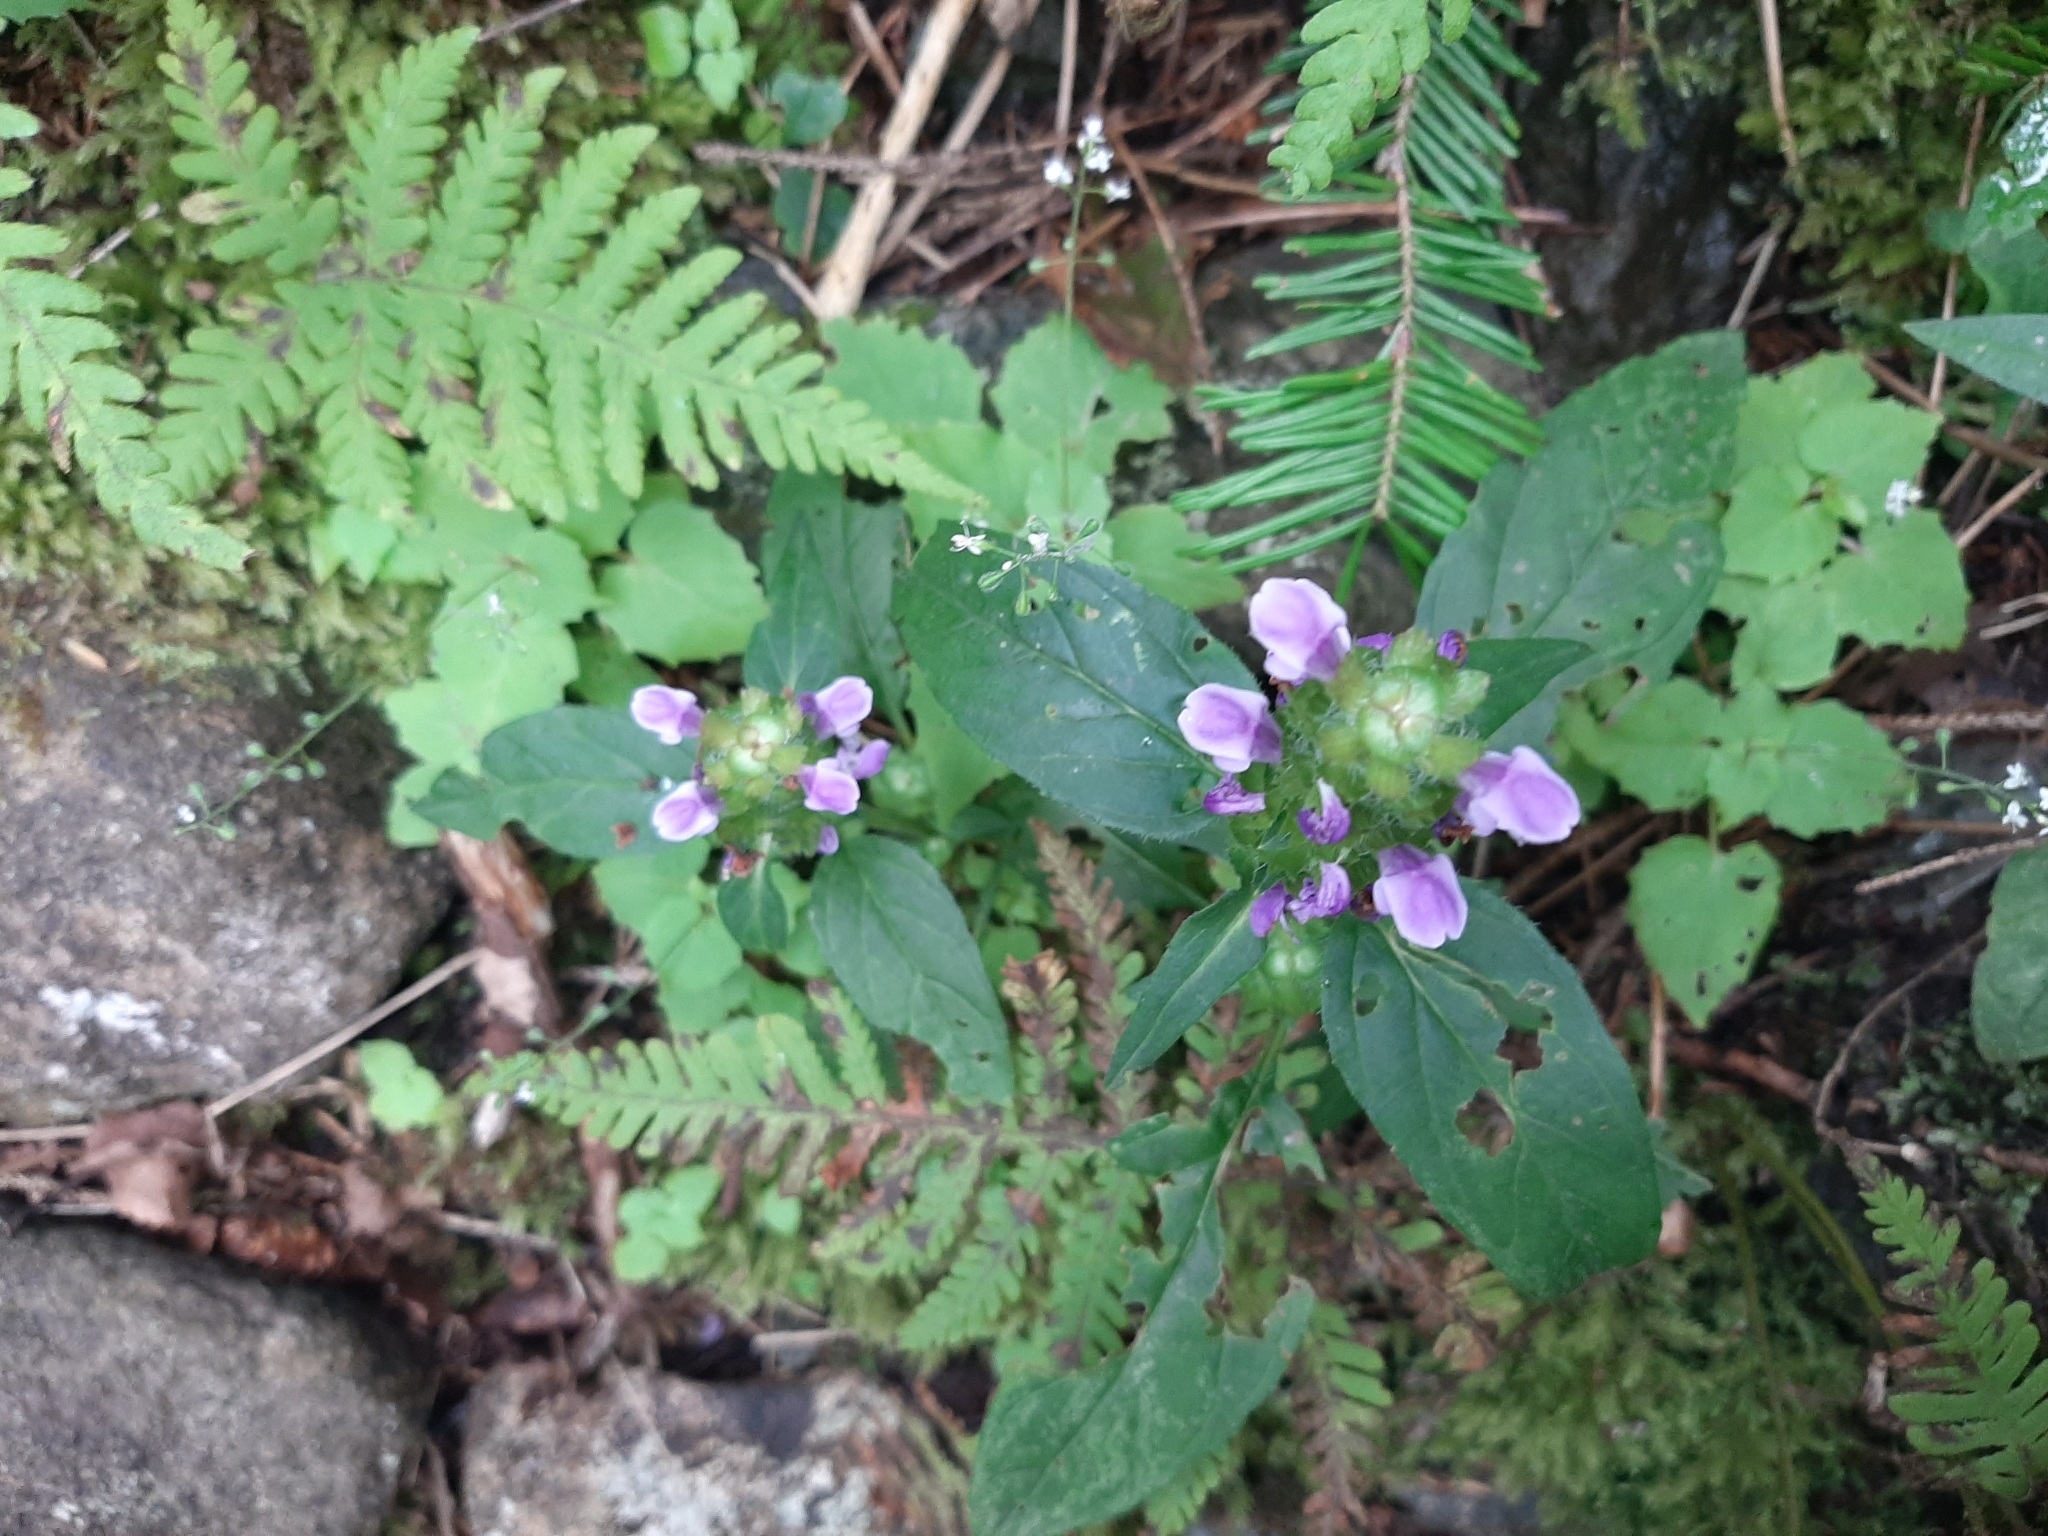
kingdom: Plantae
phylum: Tracheophyta
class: Magnoliopsida
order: Lamiales
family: Lamiaceae
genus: Prunella
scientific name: Prunella vulgaris
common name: Heal-all
